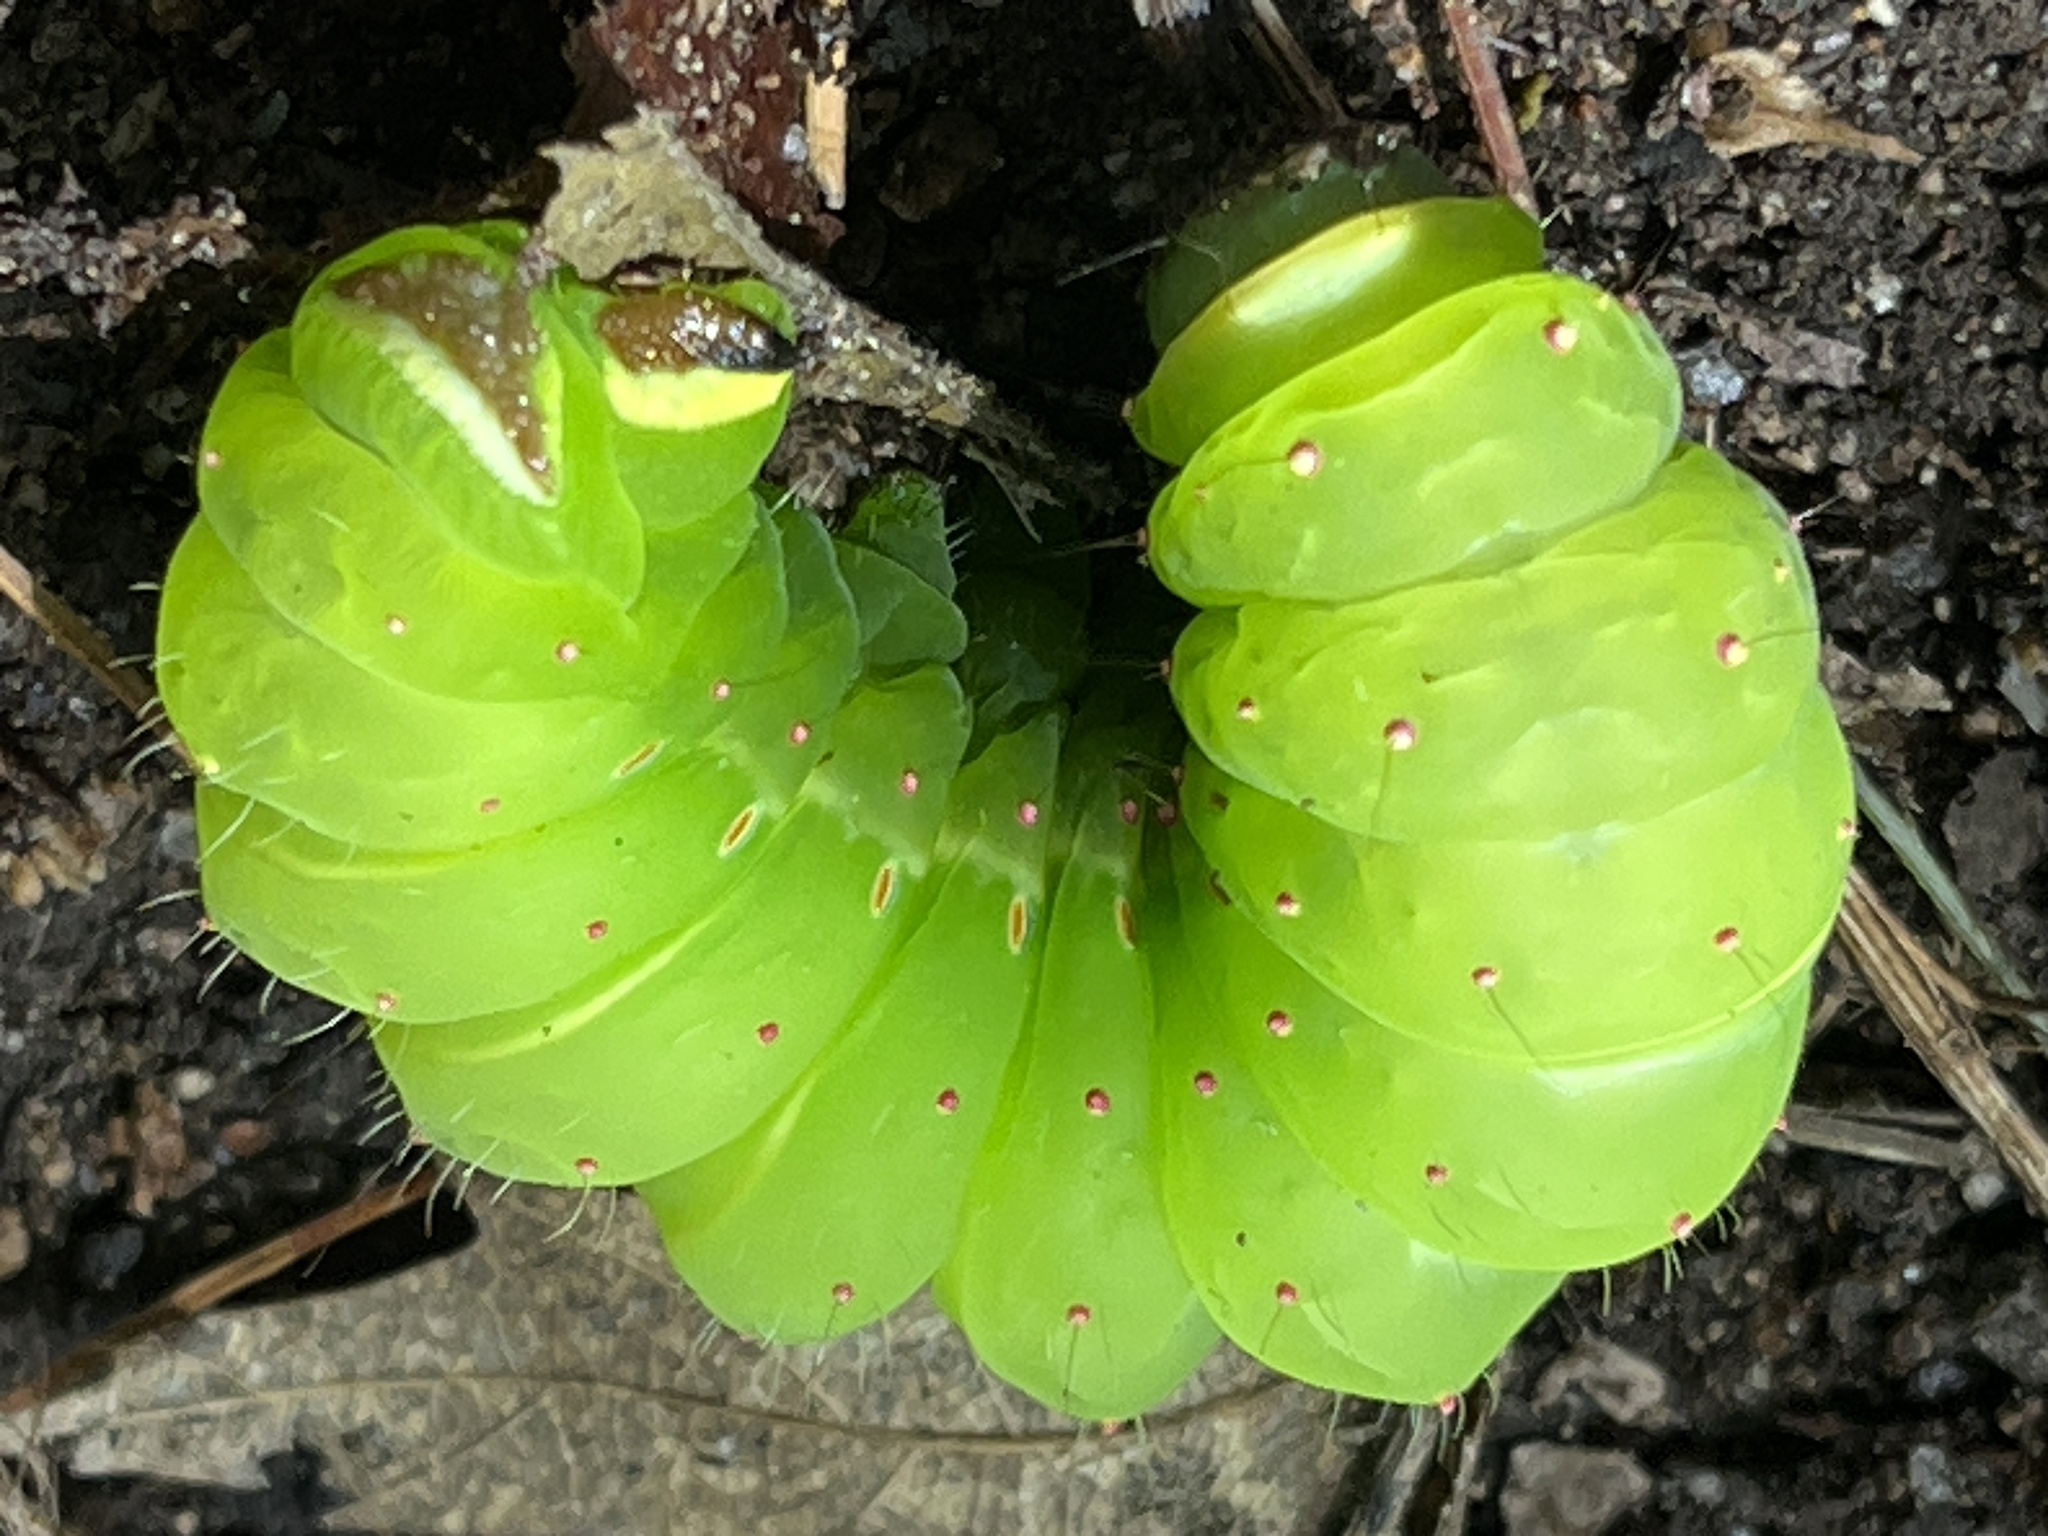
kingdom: Animalia
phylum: Arthropoda
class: Insecta
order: Lepidoptera
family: Saturniidae
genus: Actias
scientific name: Actias luna
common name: Luna moth
